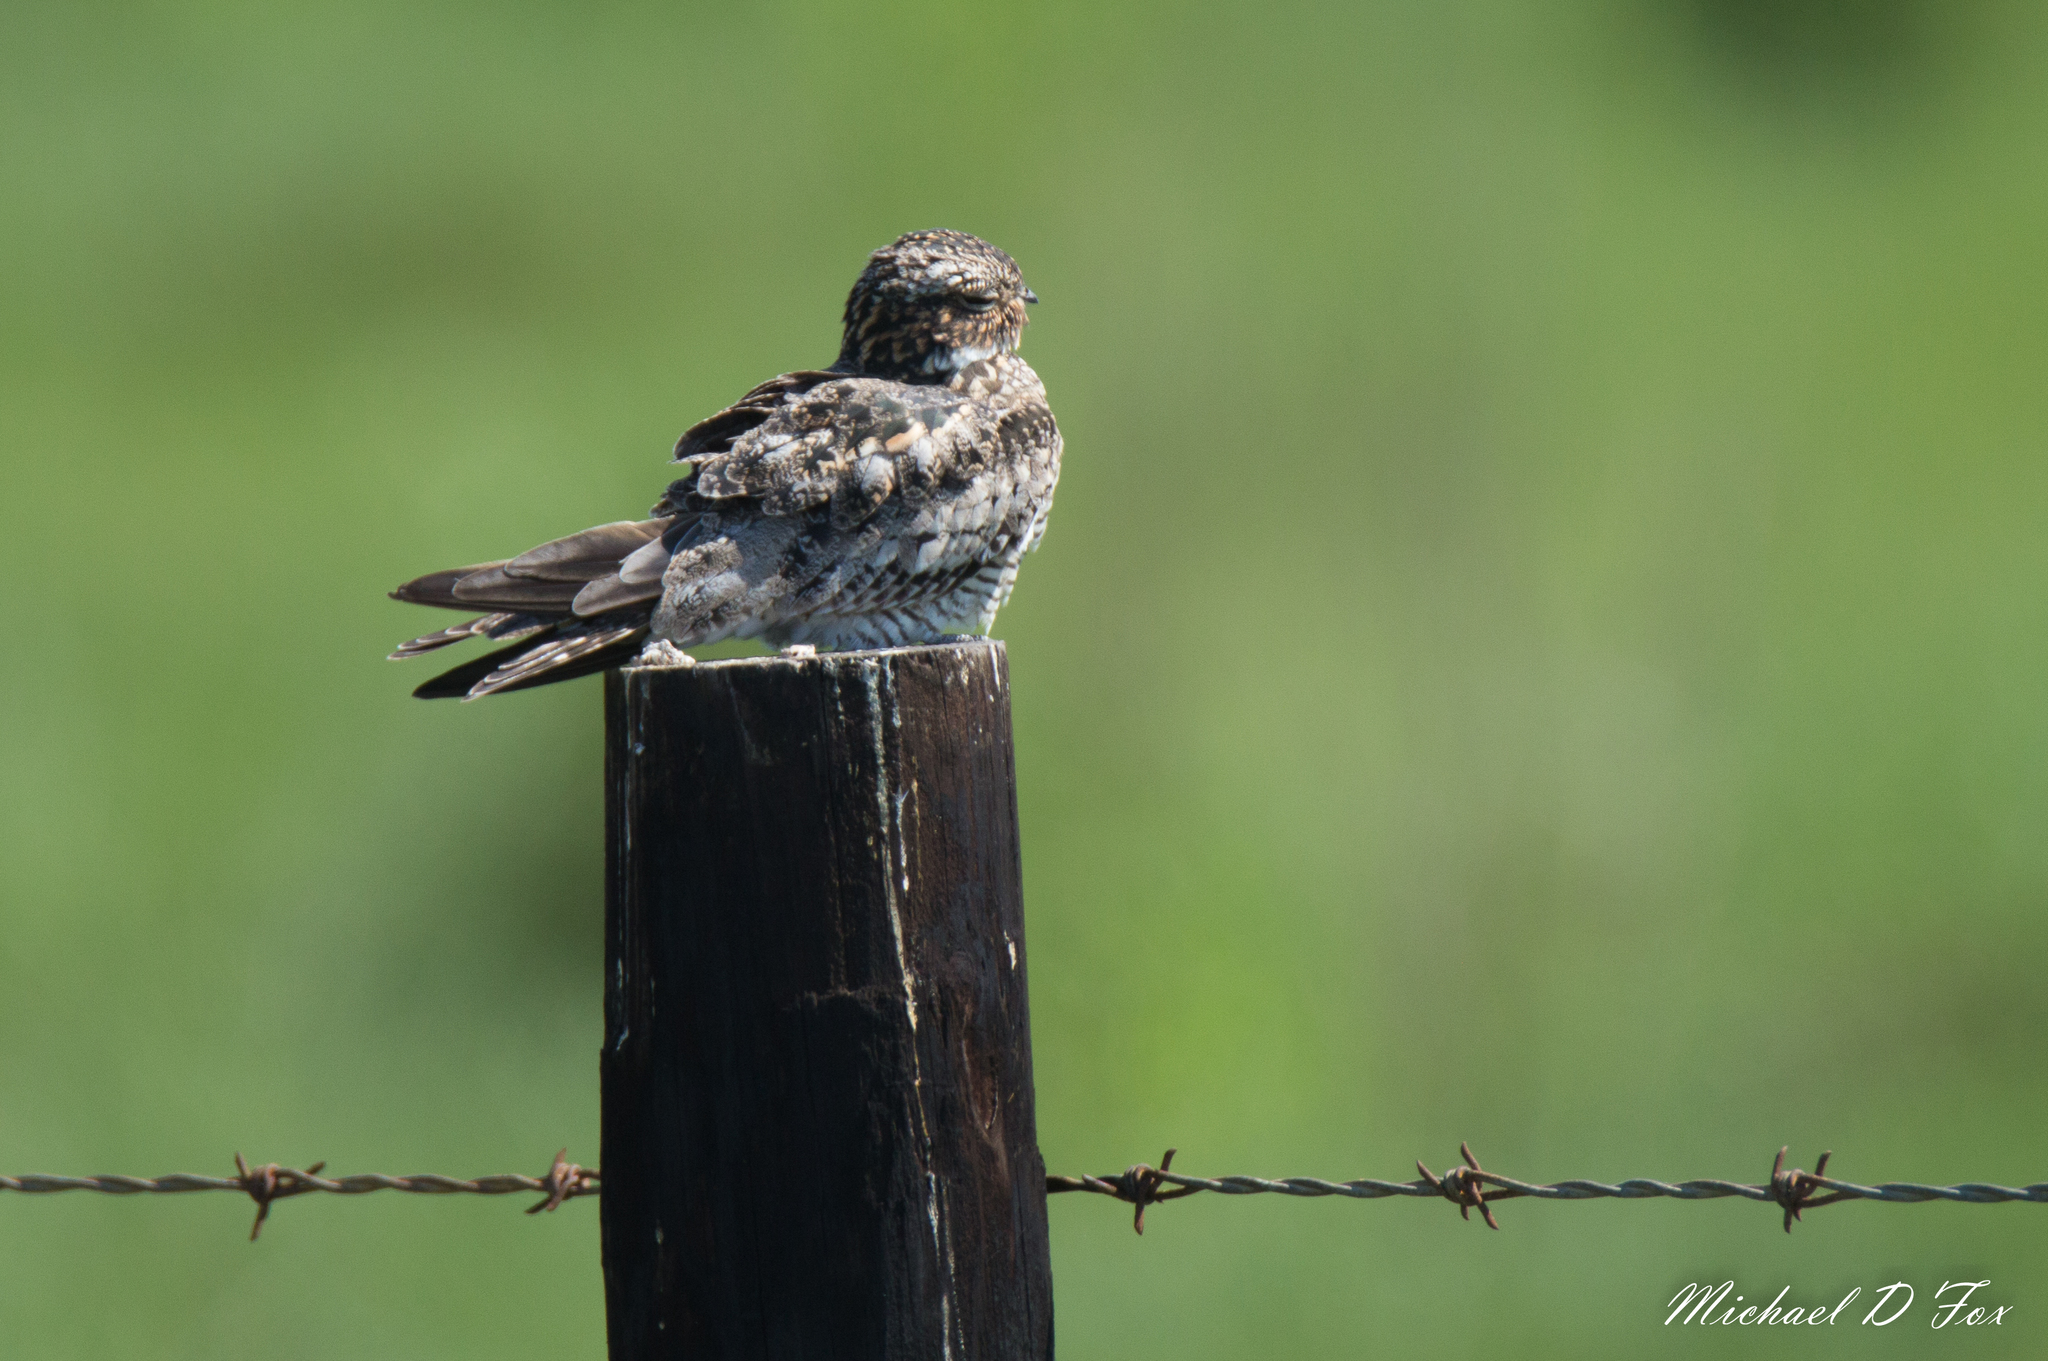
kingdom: Animalia
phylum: Chordata
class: Aves
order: Caprimulgiformes
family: Caprimulgidae
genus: Chordeiles
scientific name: Chordeiles minor
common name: Common nighthawk
